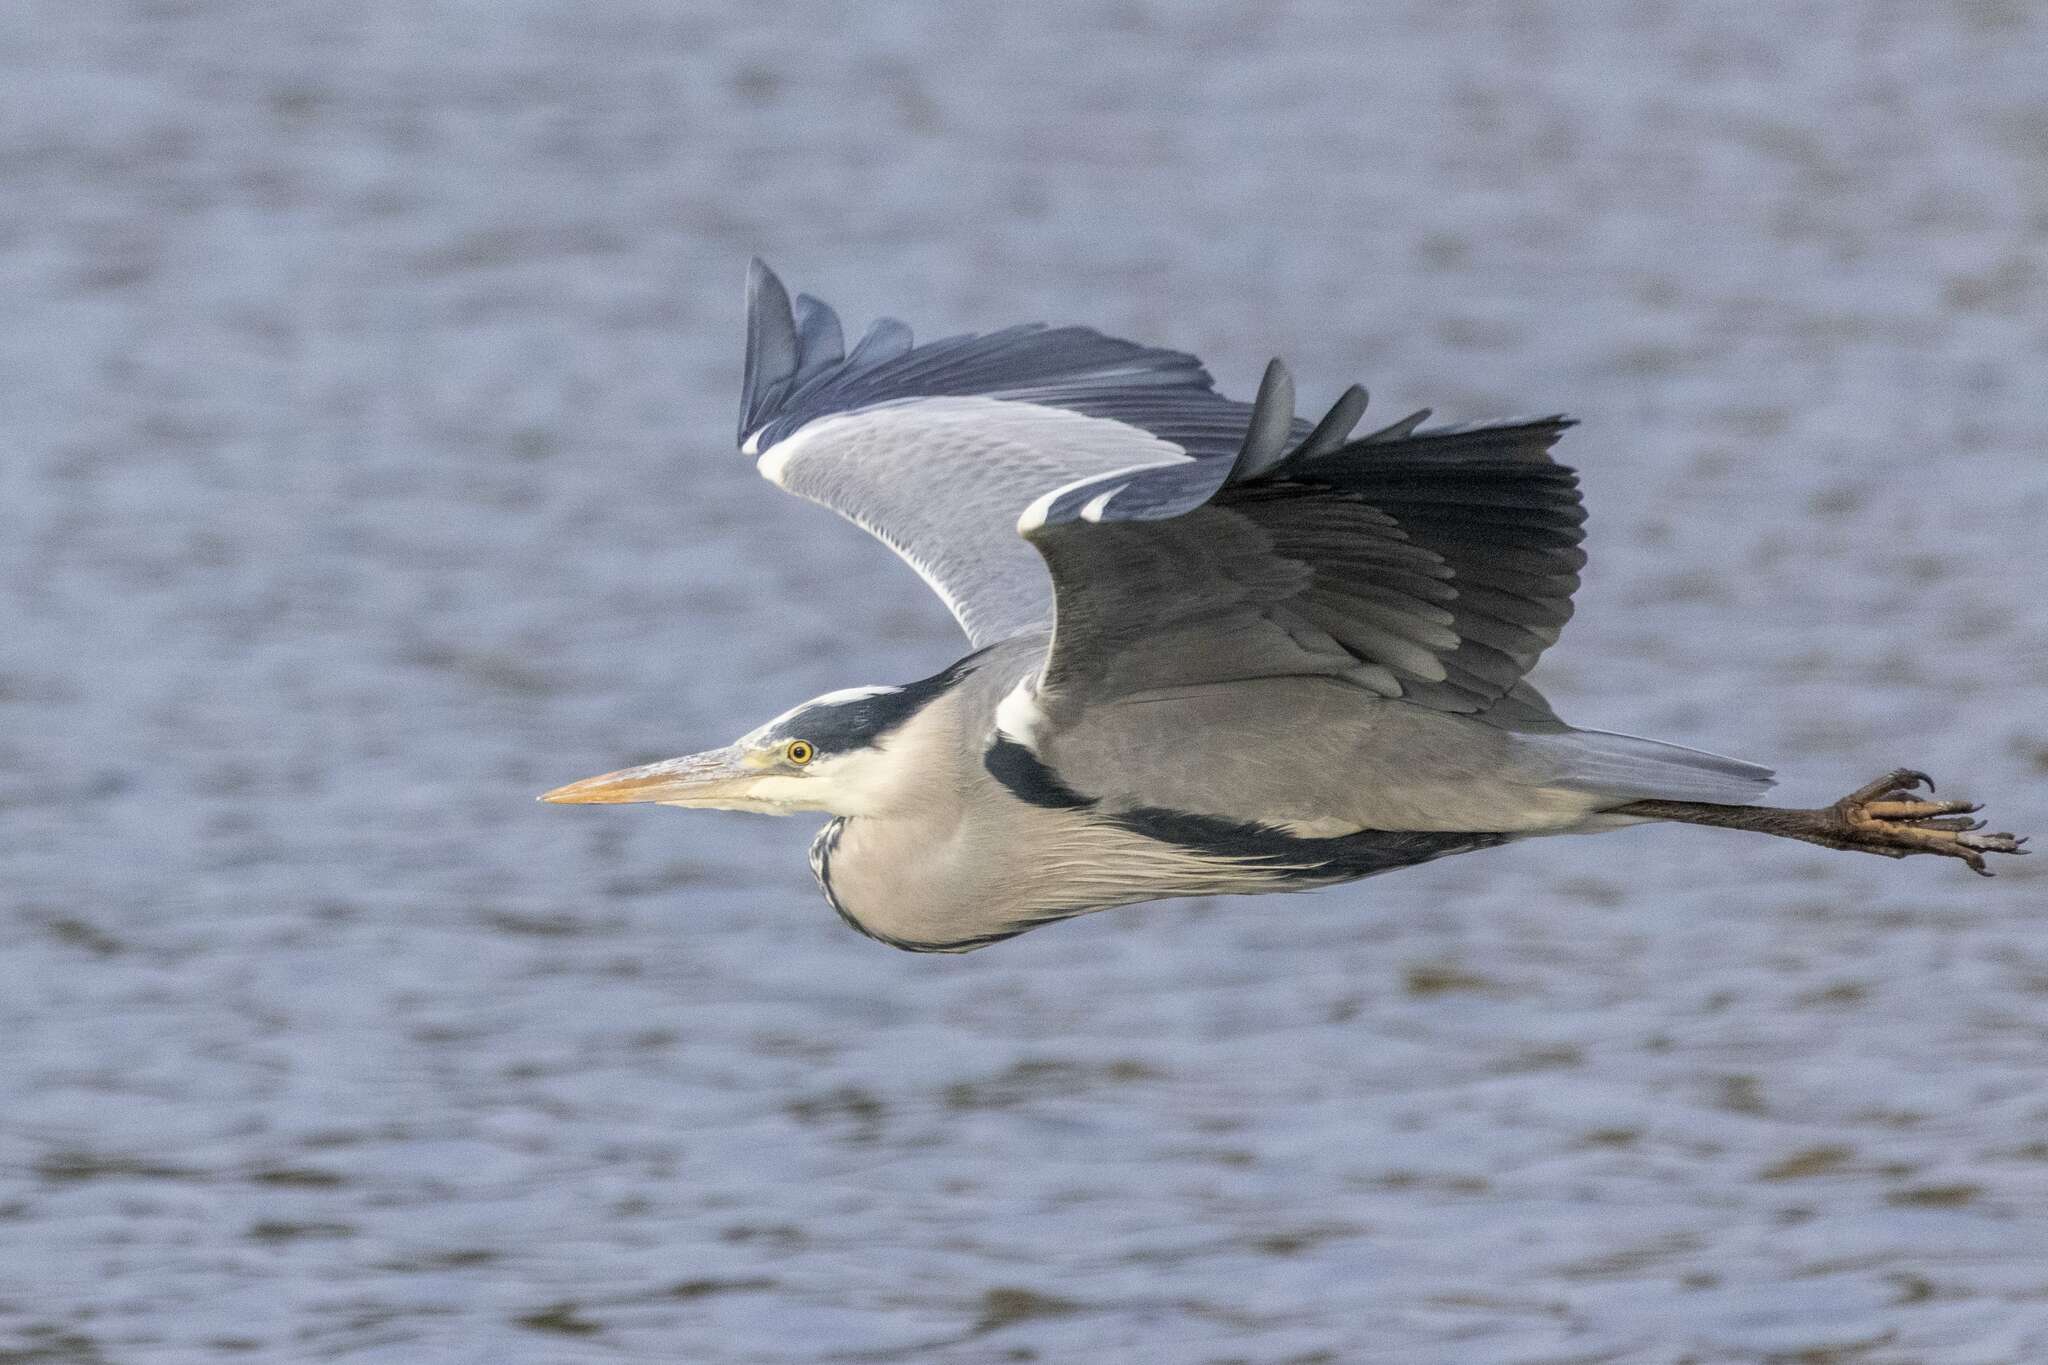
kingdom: Animalia
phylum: Chordata
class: Aves
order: Pelecaniformes
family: Ardeidae
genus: Ardea
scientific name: Ardea cinerea
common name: Grey heron
